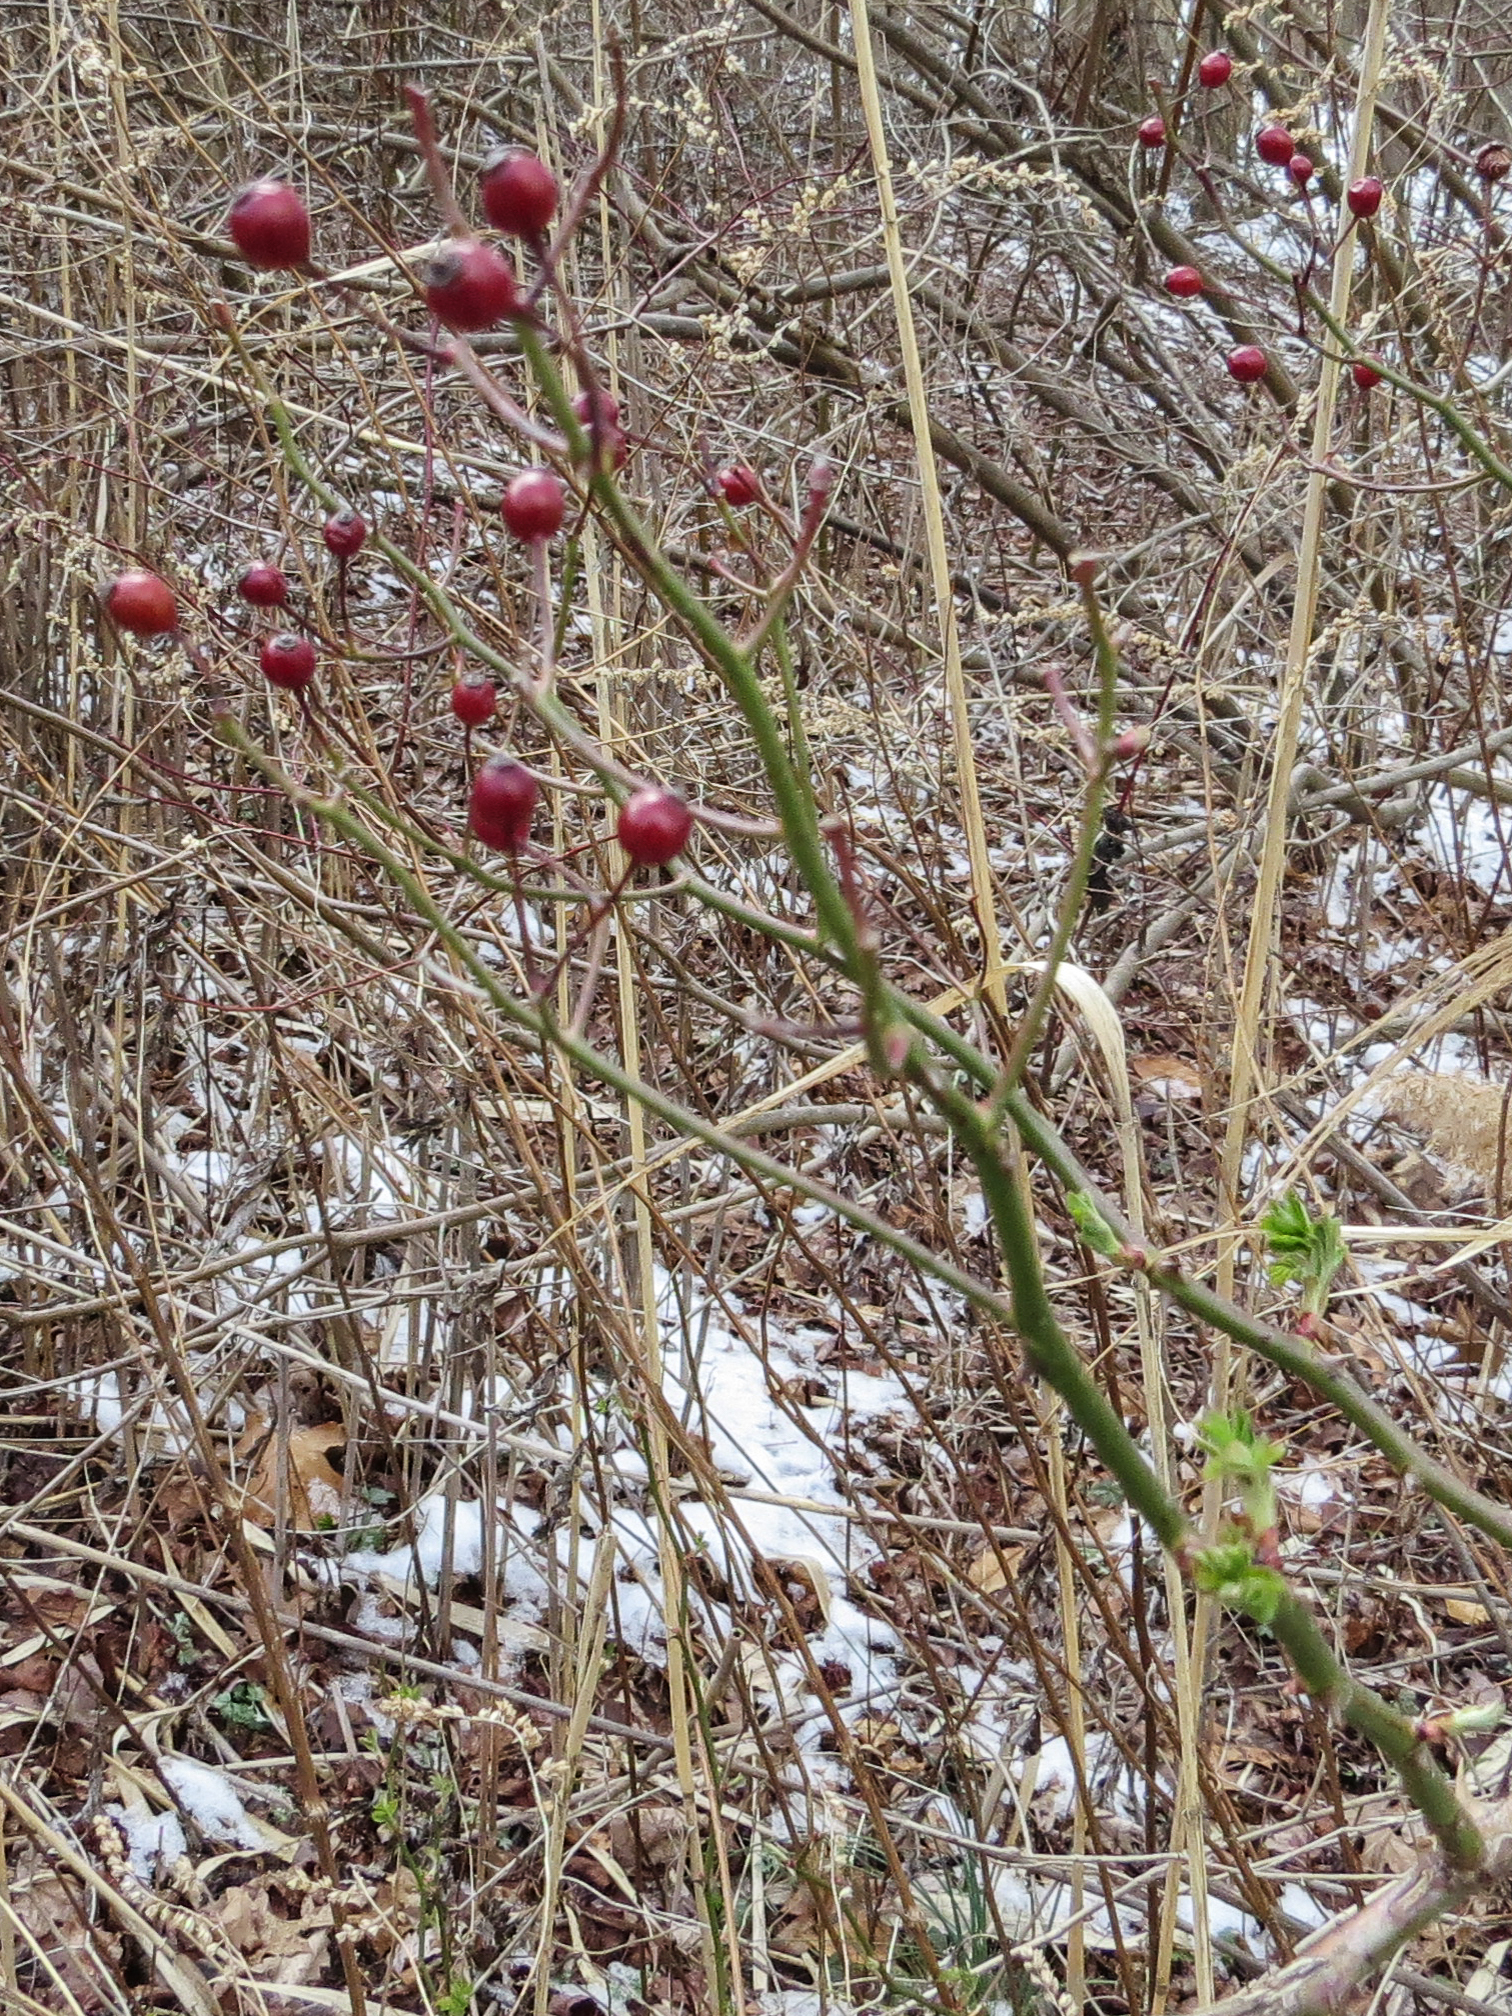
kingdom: Plantae
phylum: Tracheophyta
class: Magnoliopsida
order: Rosales
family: Rosaceae
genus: Rosa
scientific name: Rosa multiflora
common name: Multiflora rose
